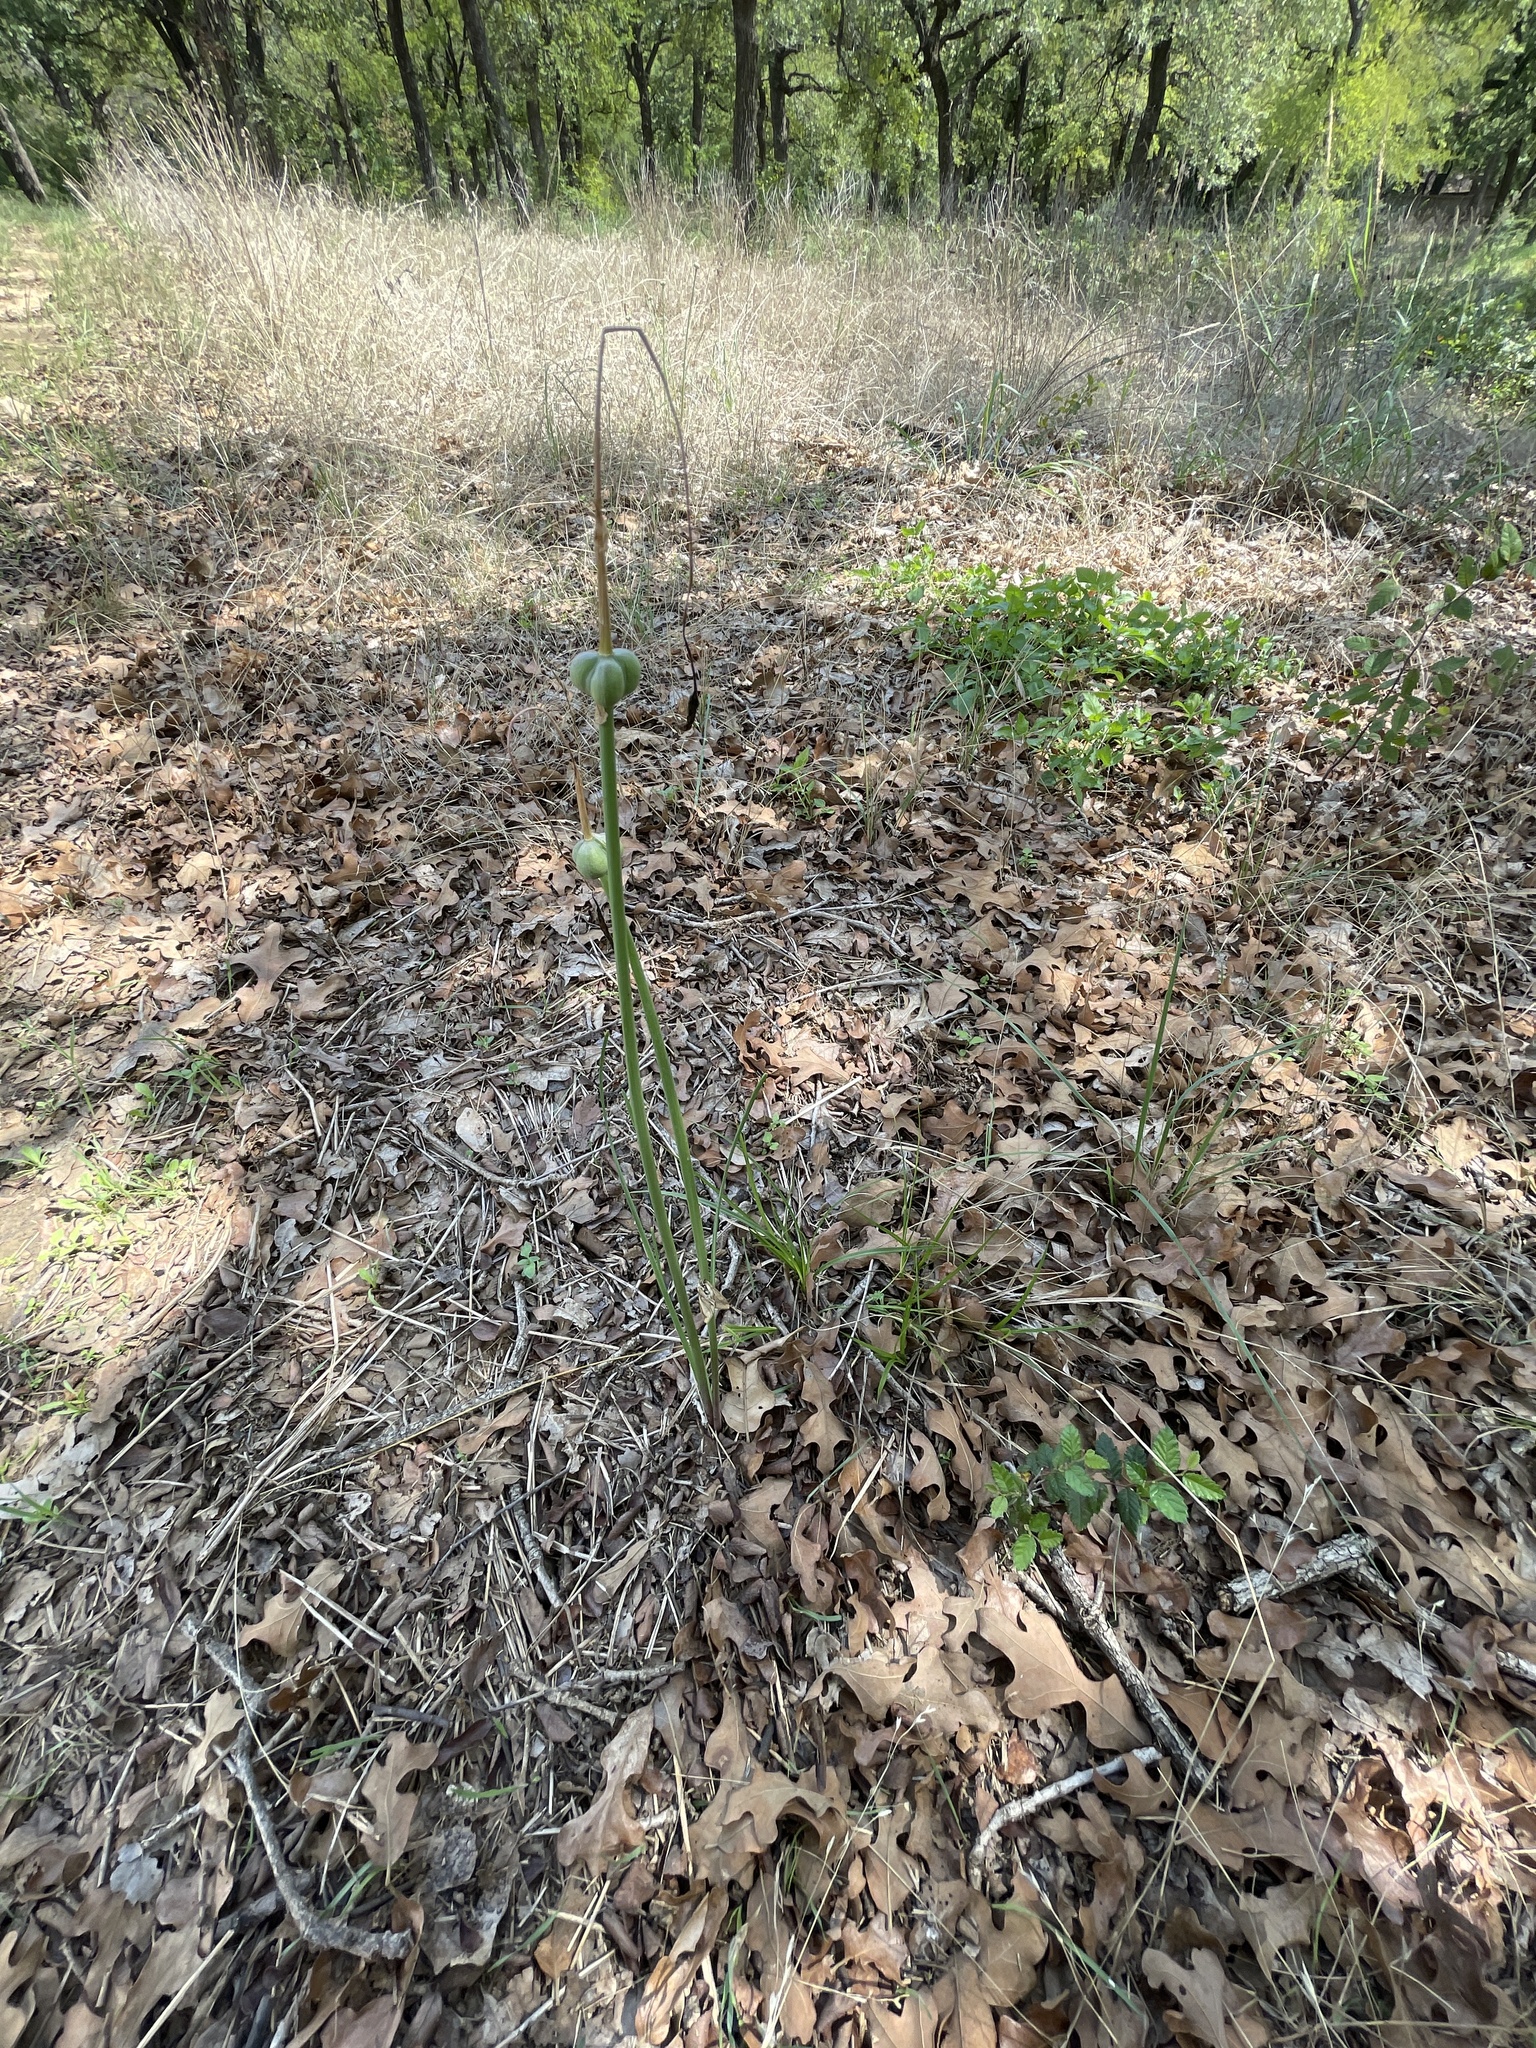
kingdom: Plantae
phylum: Tracheophyta
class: Liliopsida
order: Asparagales
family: Amaryllidaceae
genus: Zephyranthes
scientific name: Zephyranthes chlorosolen
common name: Evening rain-lily
